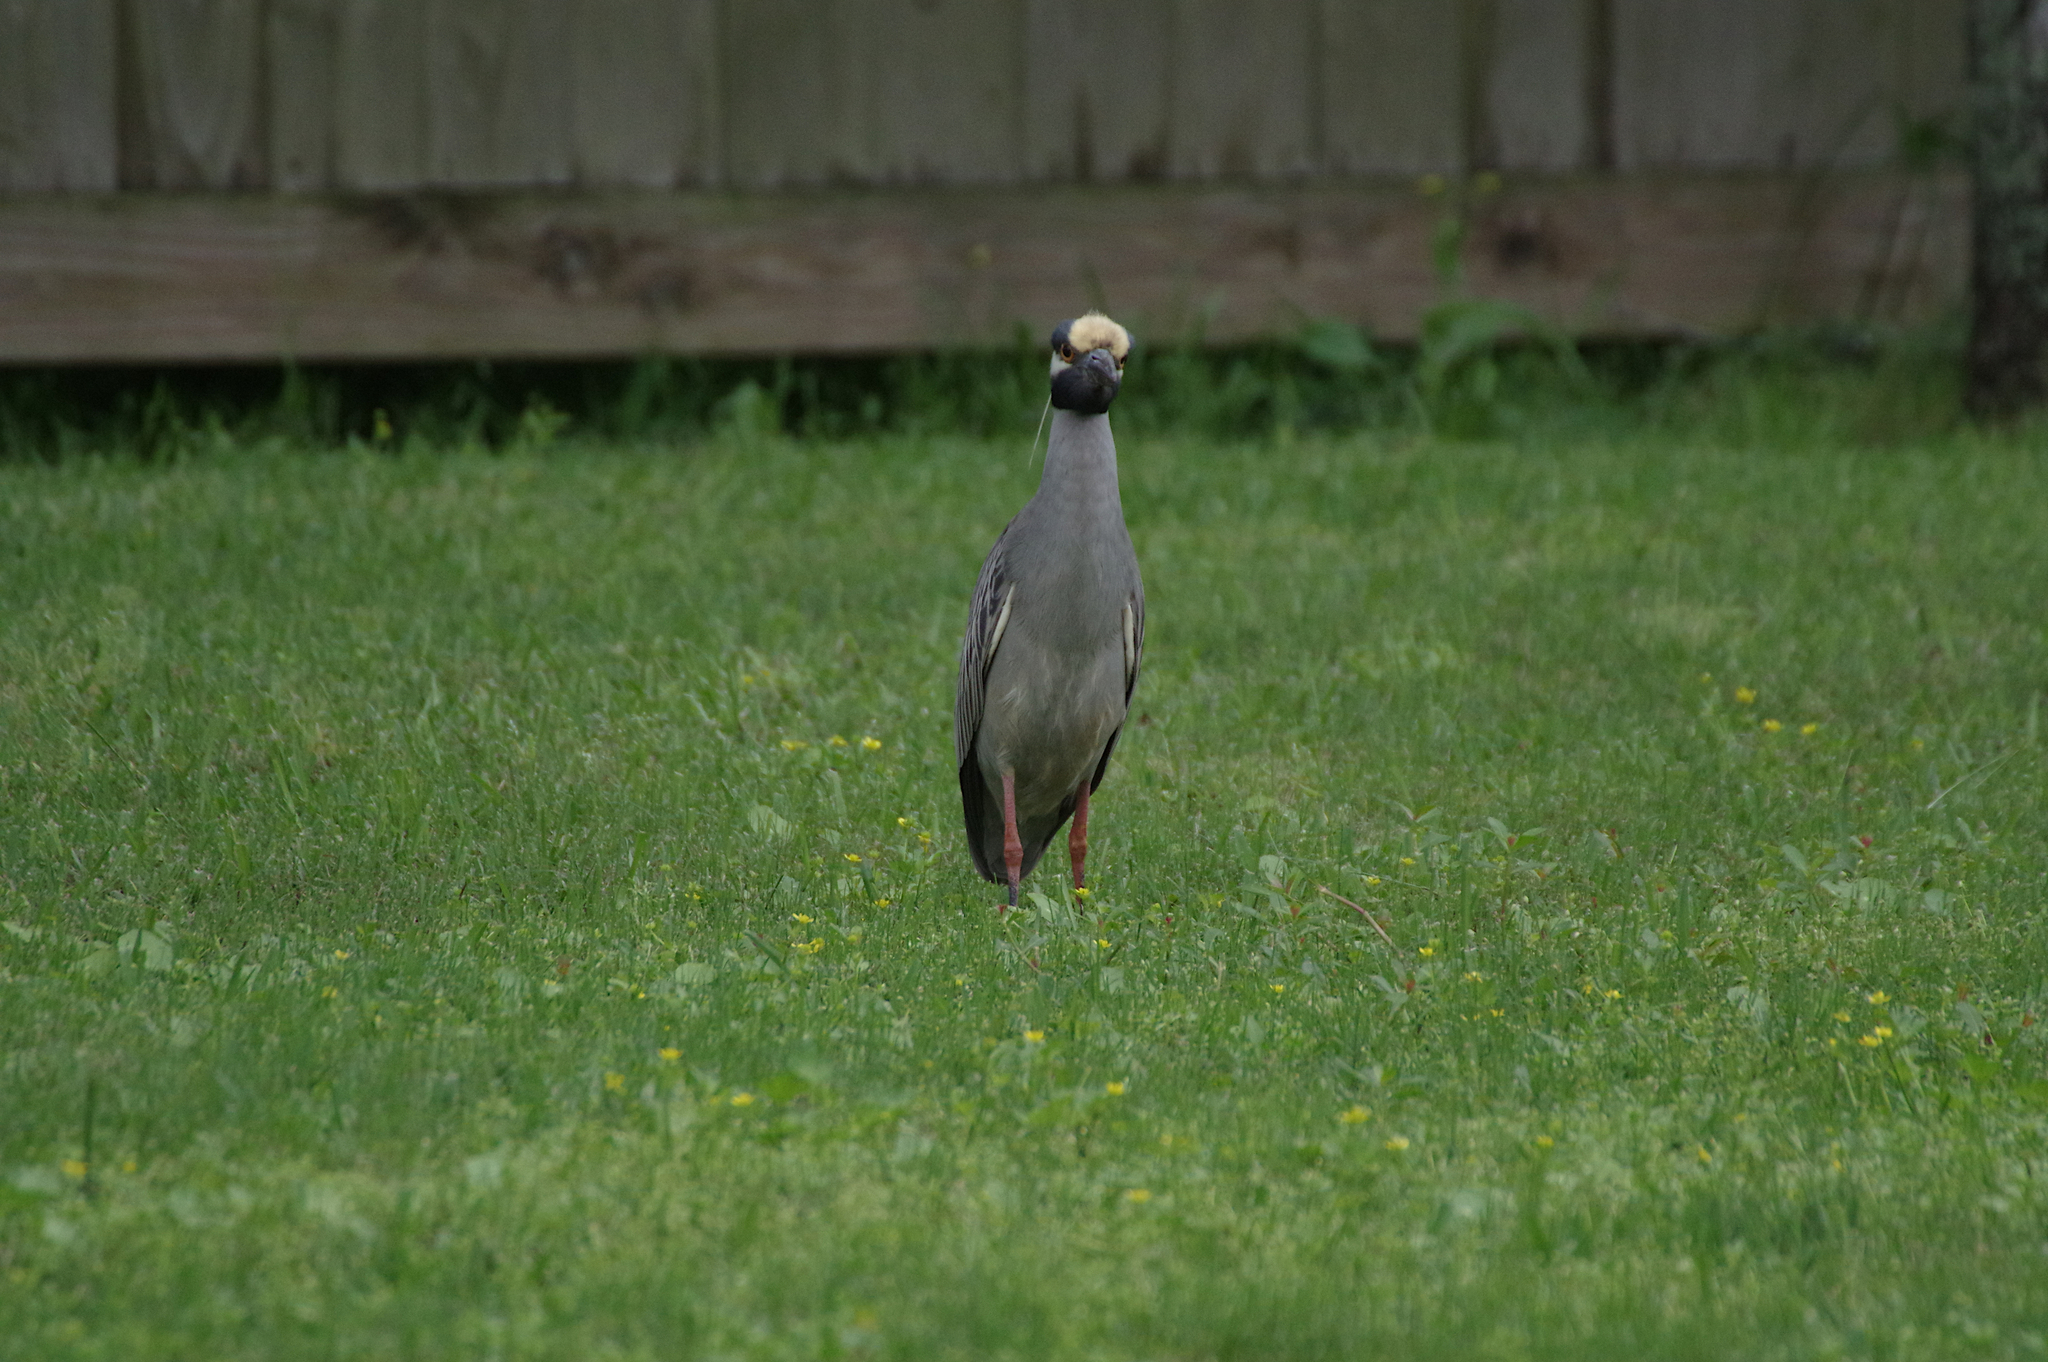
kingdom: Animalia
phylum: Chordata
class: Aves
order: Pelecaniformes
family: Ardeidae
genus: Nyctanassa
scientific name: Nyctanassa violacea
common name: Yellow-crowned night heron
